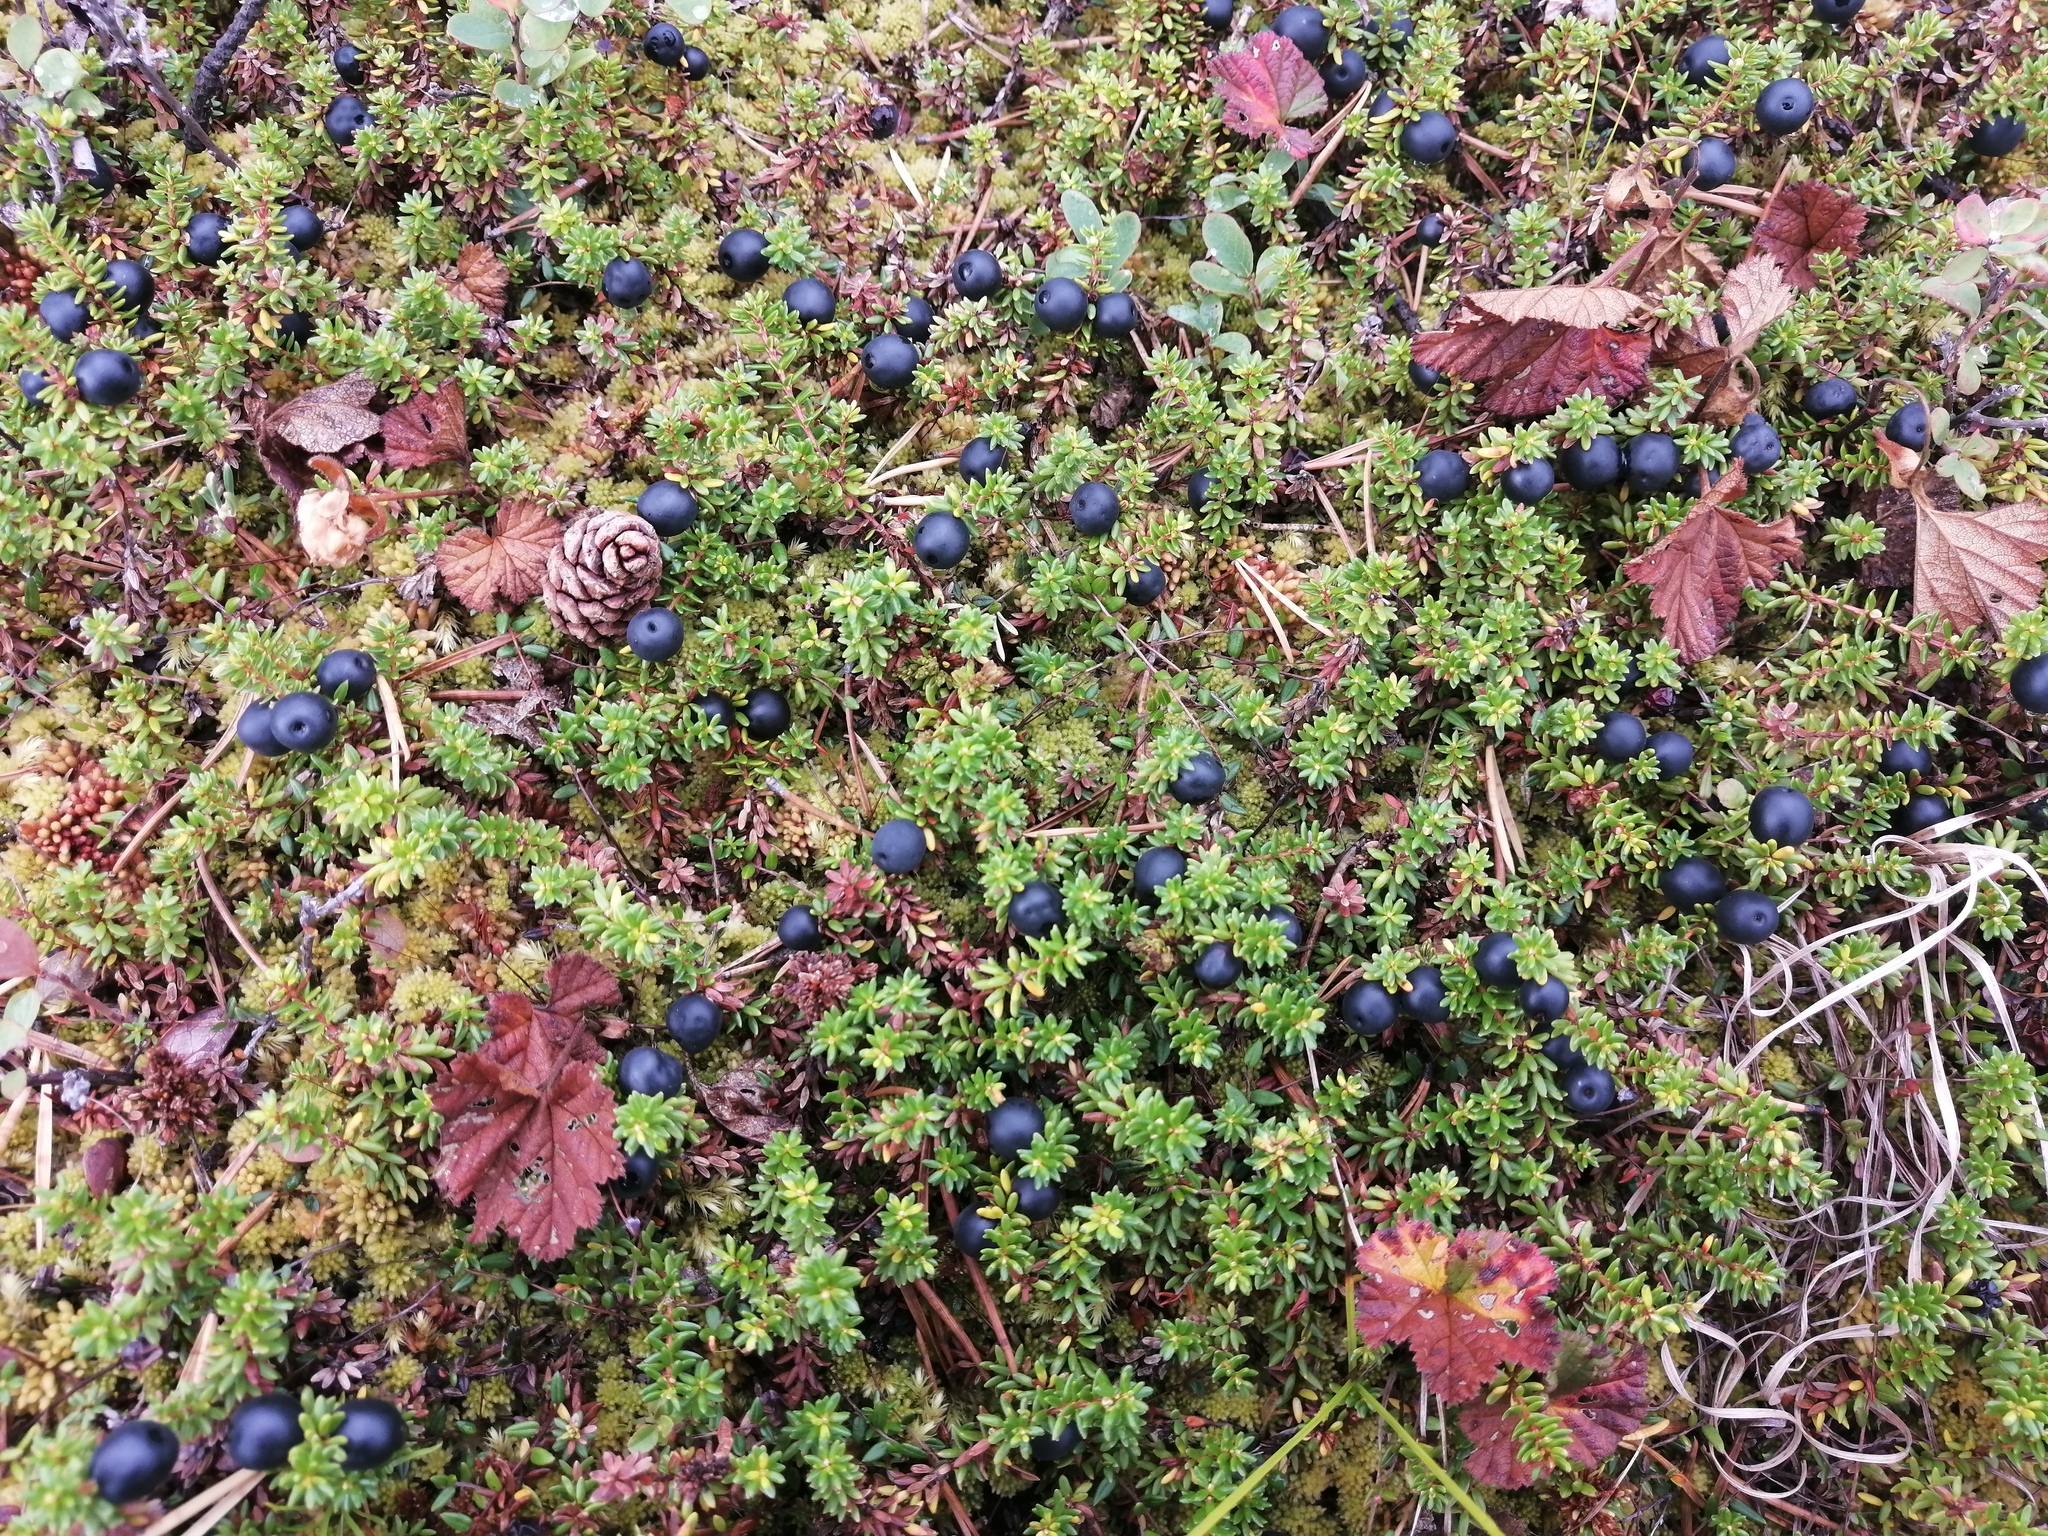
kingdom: Plantae
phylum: Tracheophyta
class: Magnoliopsida
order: Ericales
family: Ericaceae
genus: Empetrum
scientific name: Empetrum hermaphroditum
